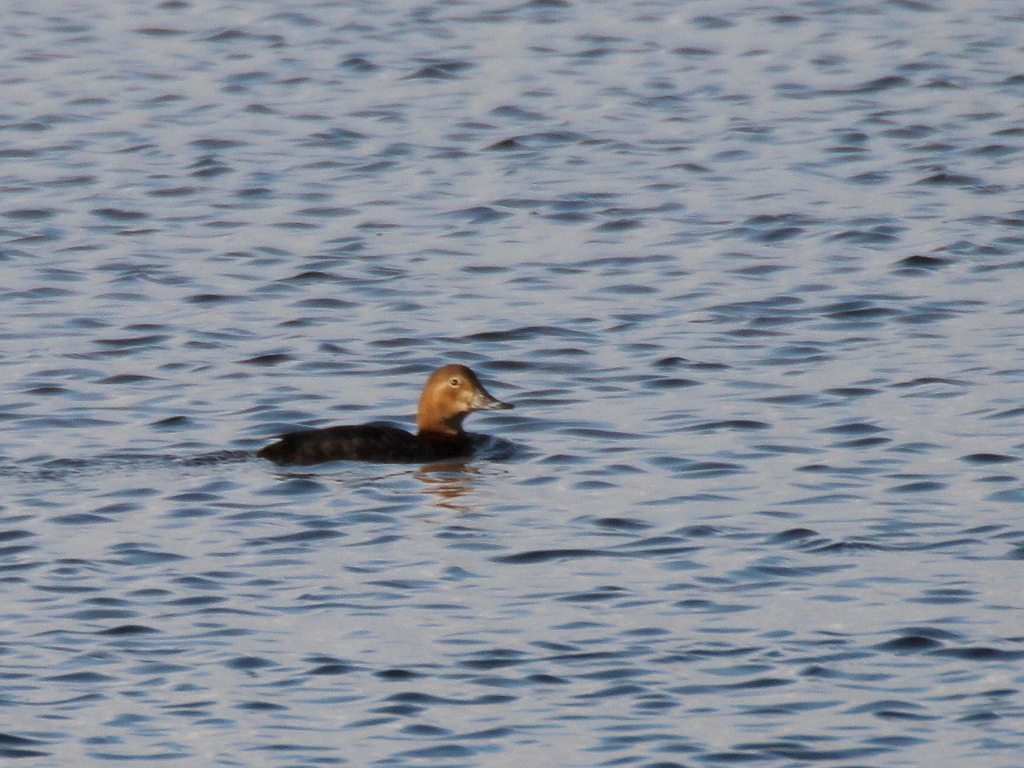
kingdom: Animalia
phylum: Chordata
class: Aves
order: Anseriformes
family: Anatidae
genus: Aythya
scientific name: Aythya ferina
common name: Common pochard
